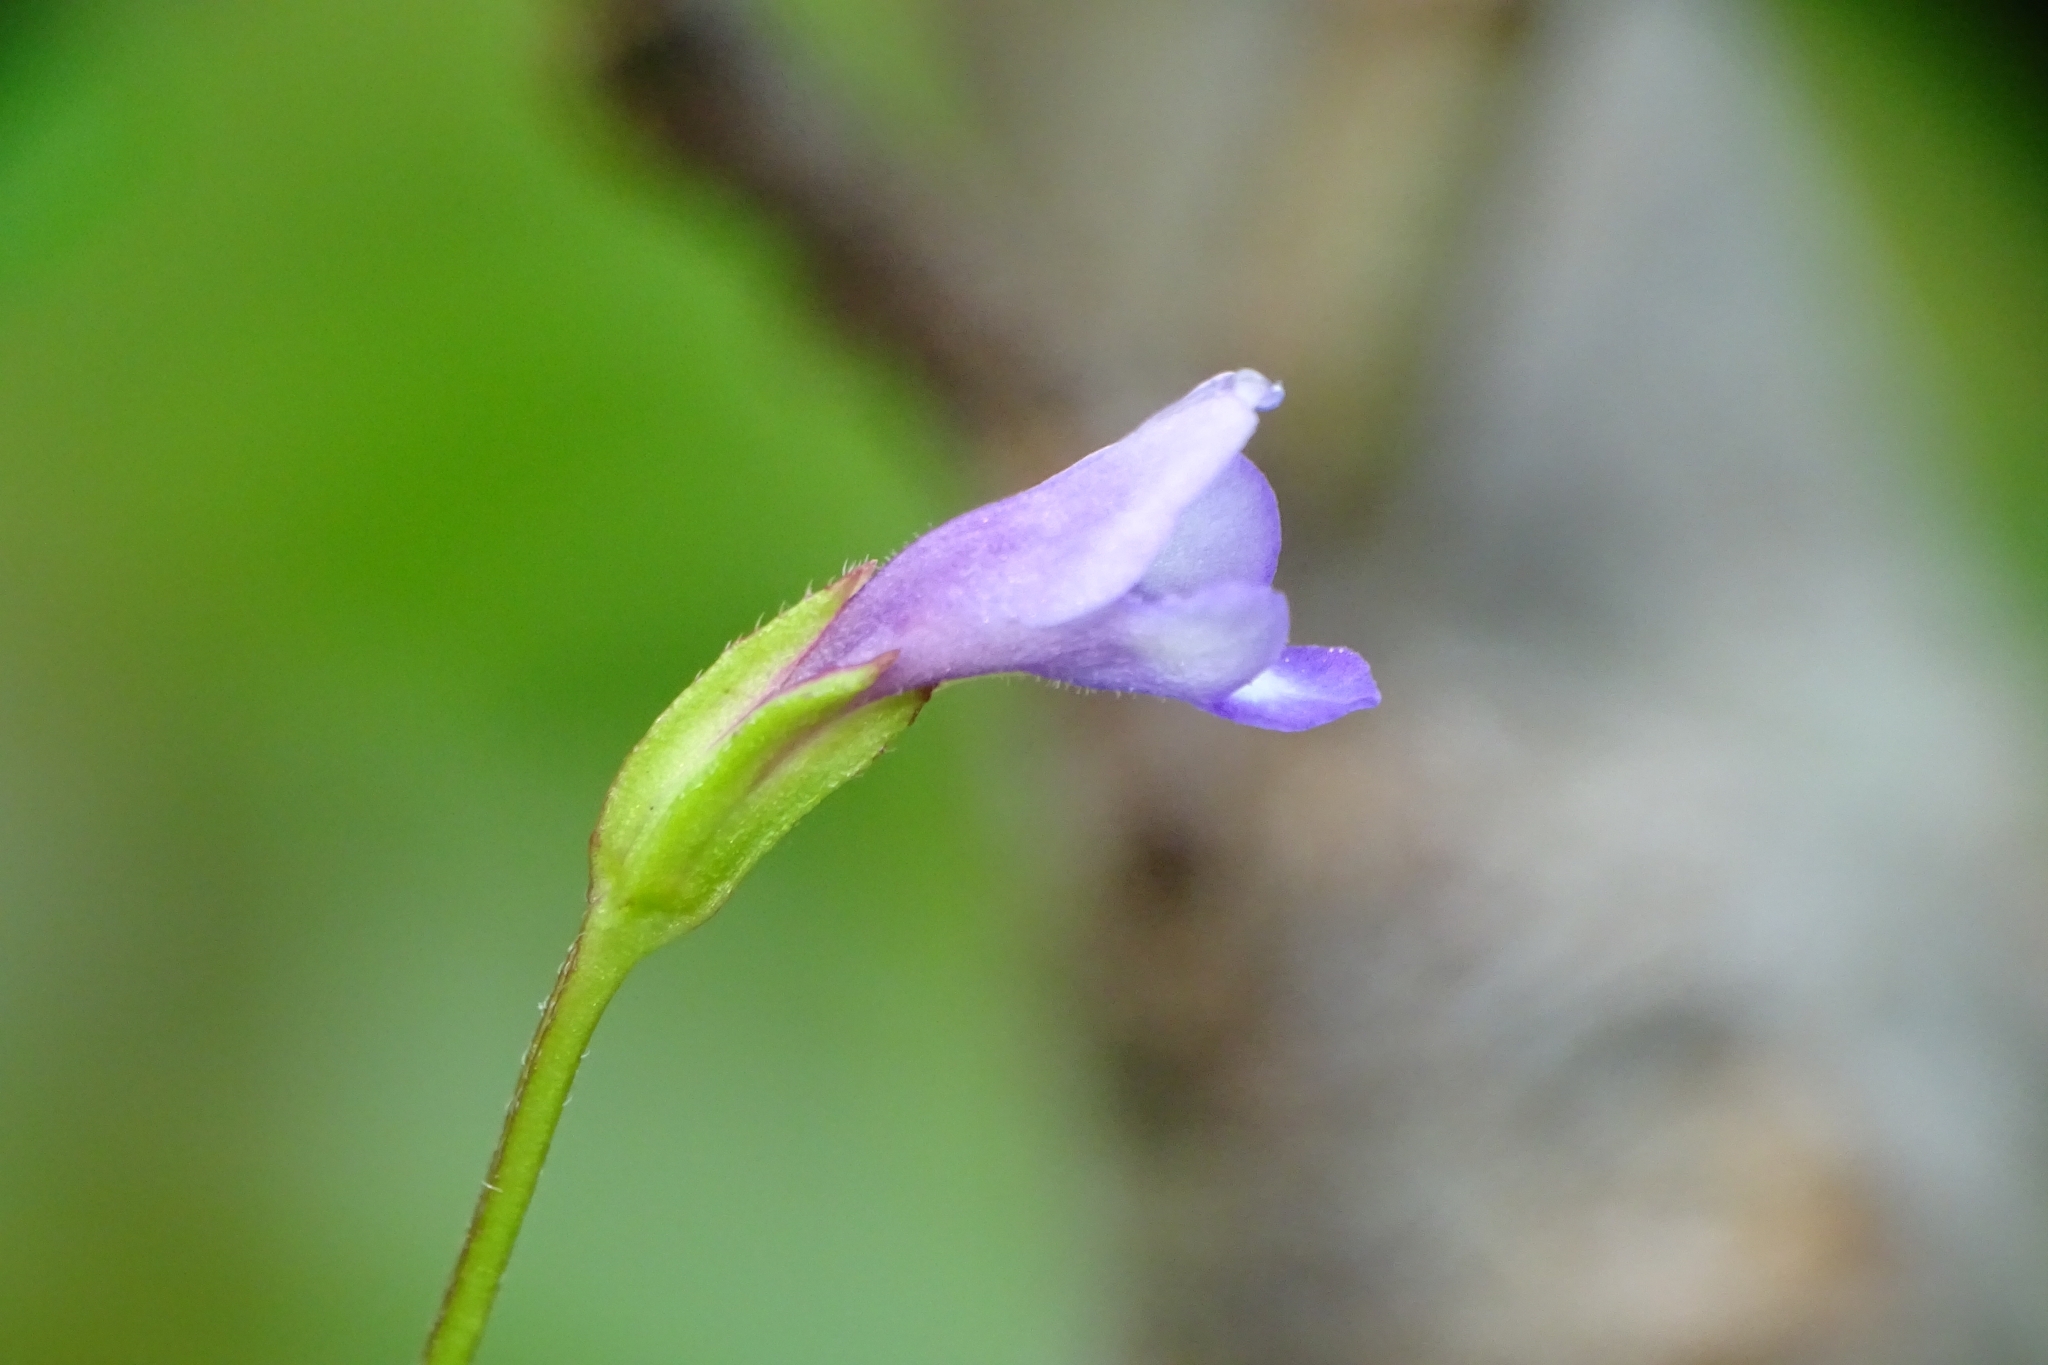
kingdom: Plantae
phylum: Tracheophyta
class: Magnoliopsida
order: Lamiales
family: Linderniaceae
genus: Torenia
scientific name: Torenia crustacea
